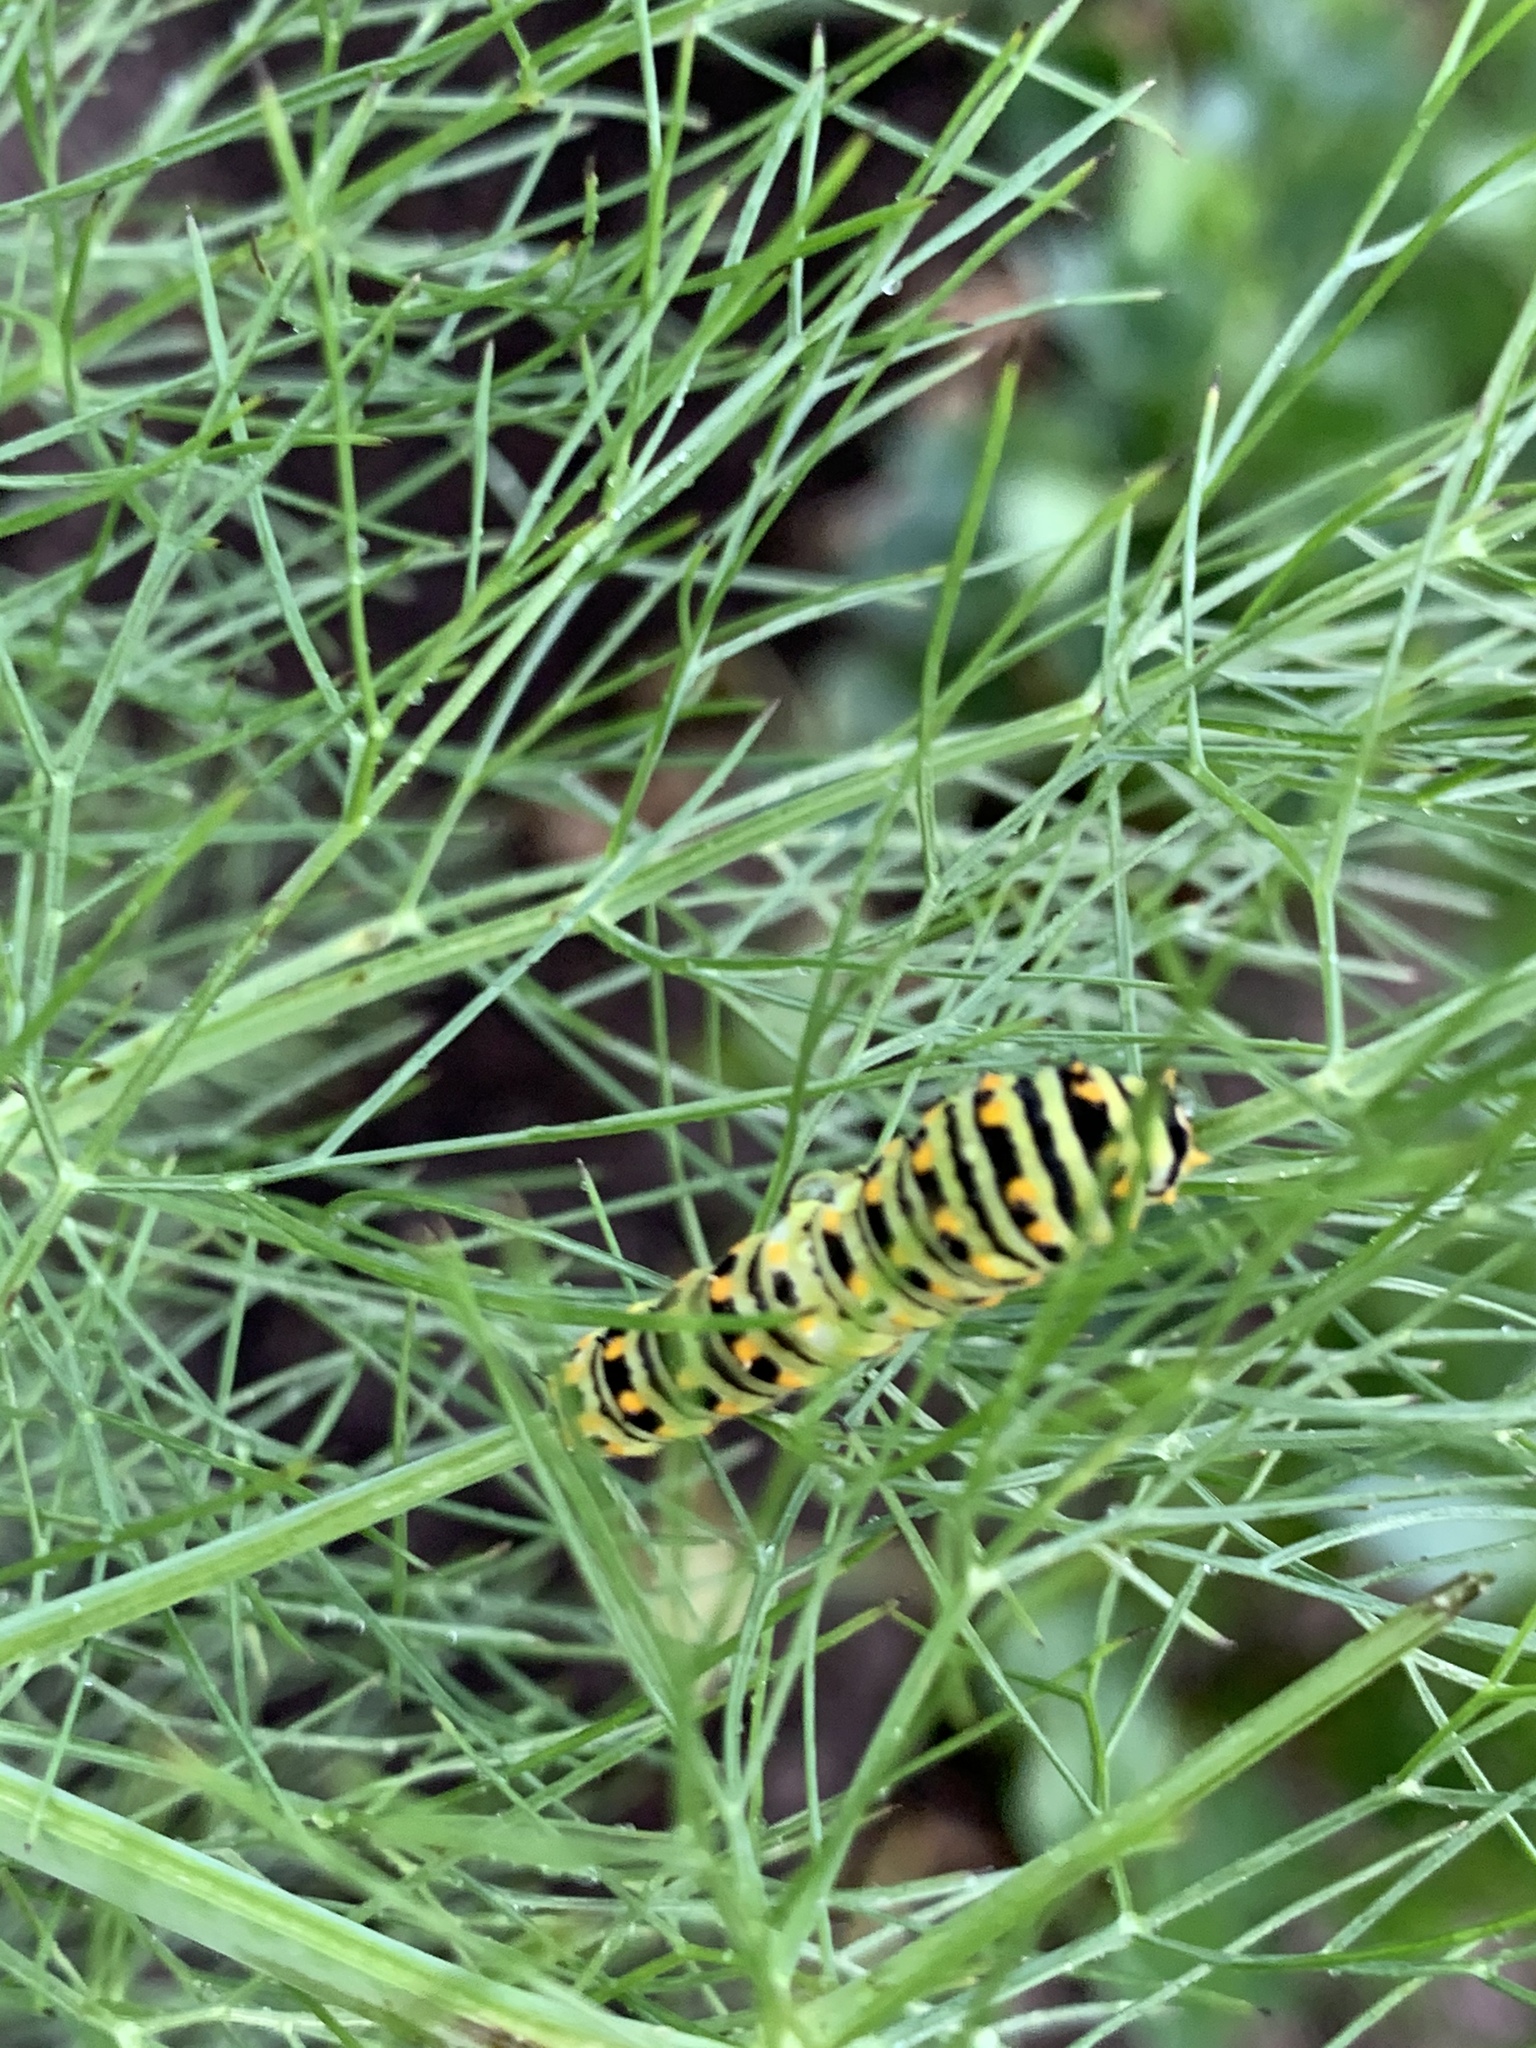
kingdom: Animalia
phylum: Arthropoda
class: Insecta
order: Lepidoptera
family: Papilionidae
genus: Papilio
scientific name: Papilio polyxenes
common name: Black swallowtail
